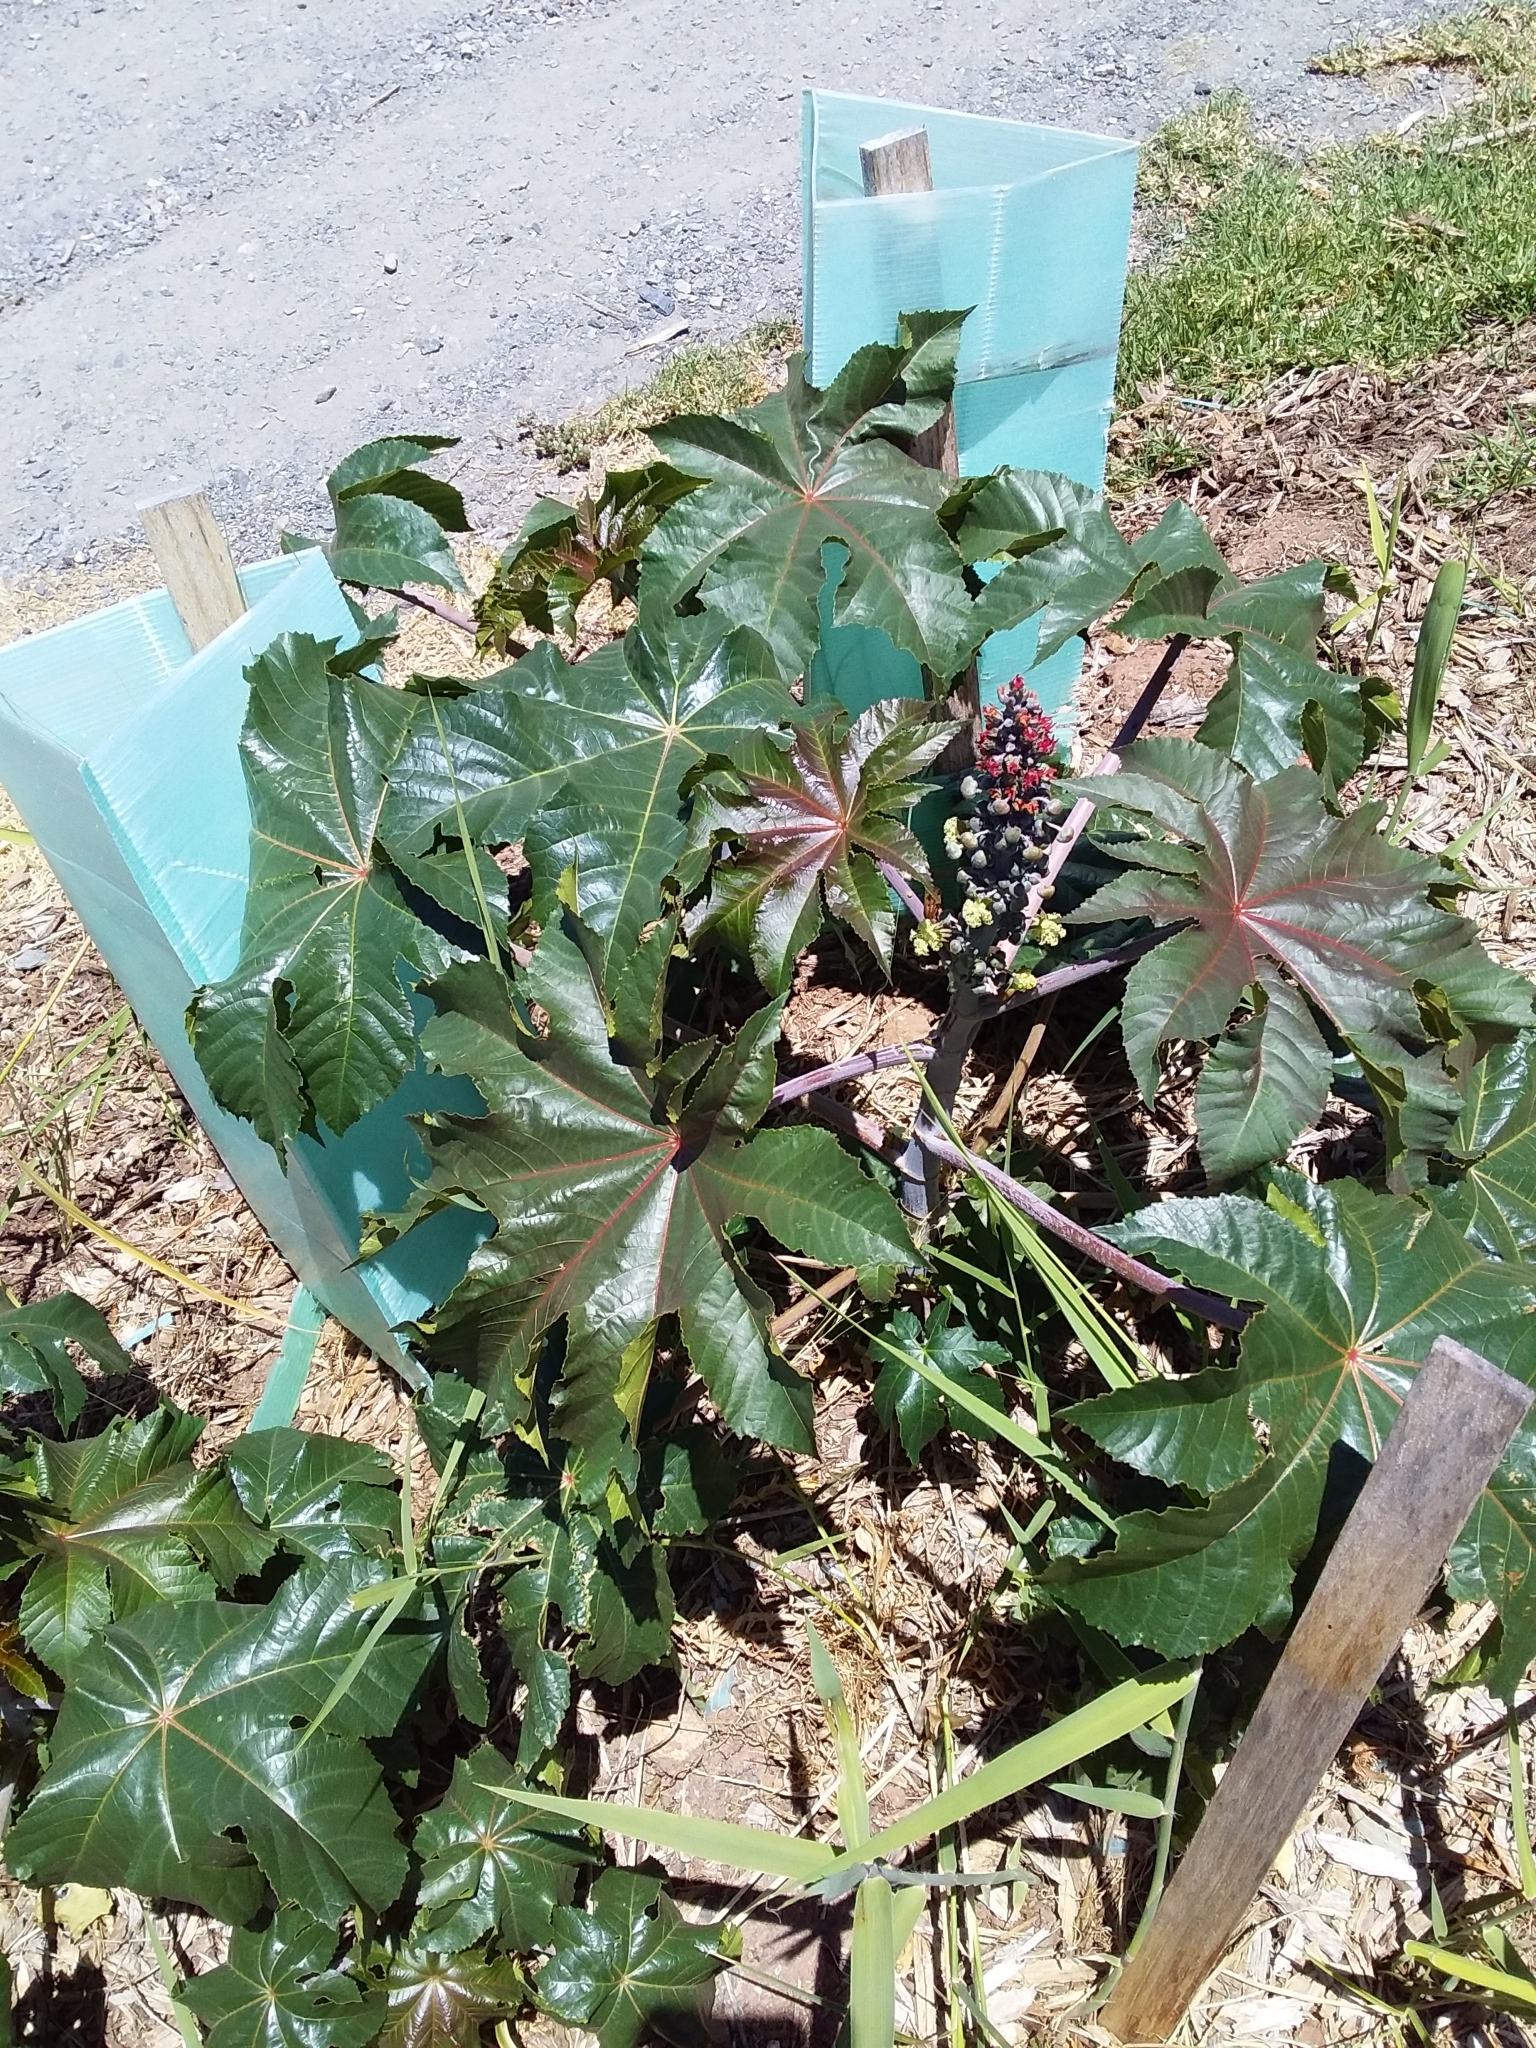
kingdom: Plantae
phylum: Tracheophyta
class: Magnoliopsida
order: Malpighiales
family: Euphorbiaceae
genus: Ricinus
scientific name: Ricinus communis
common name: Castor-oil-plant
